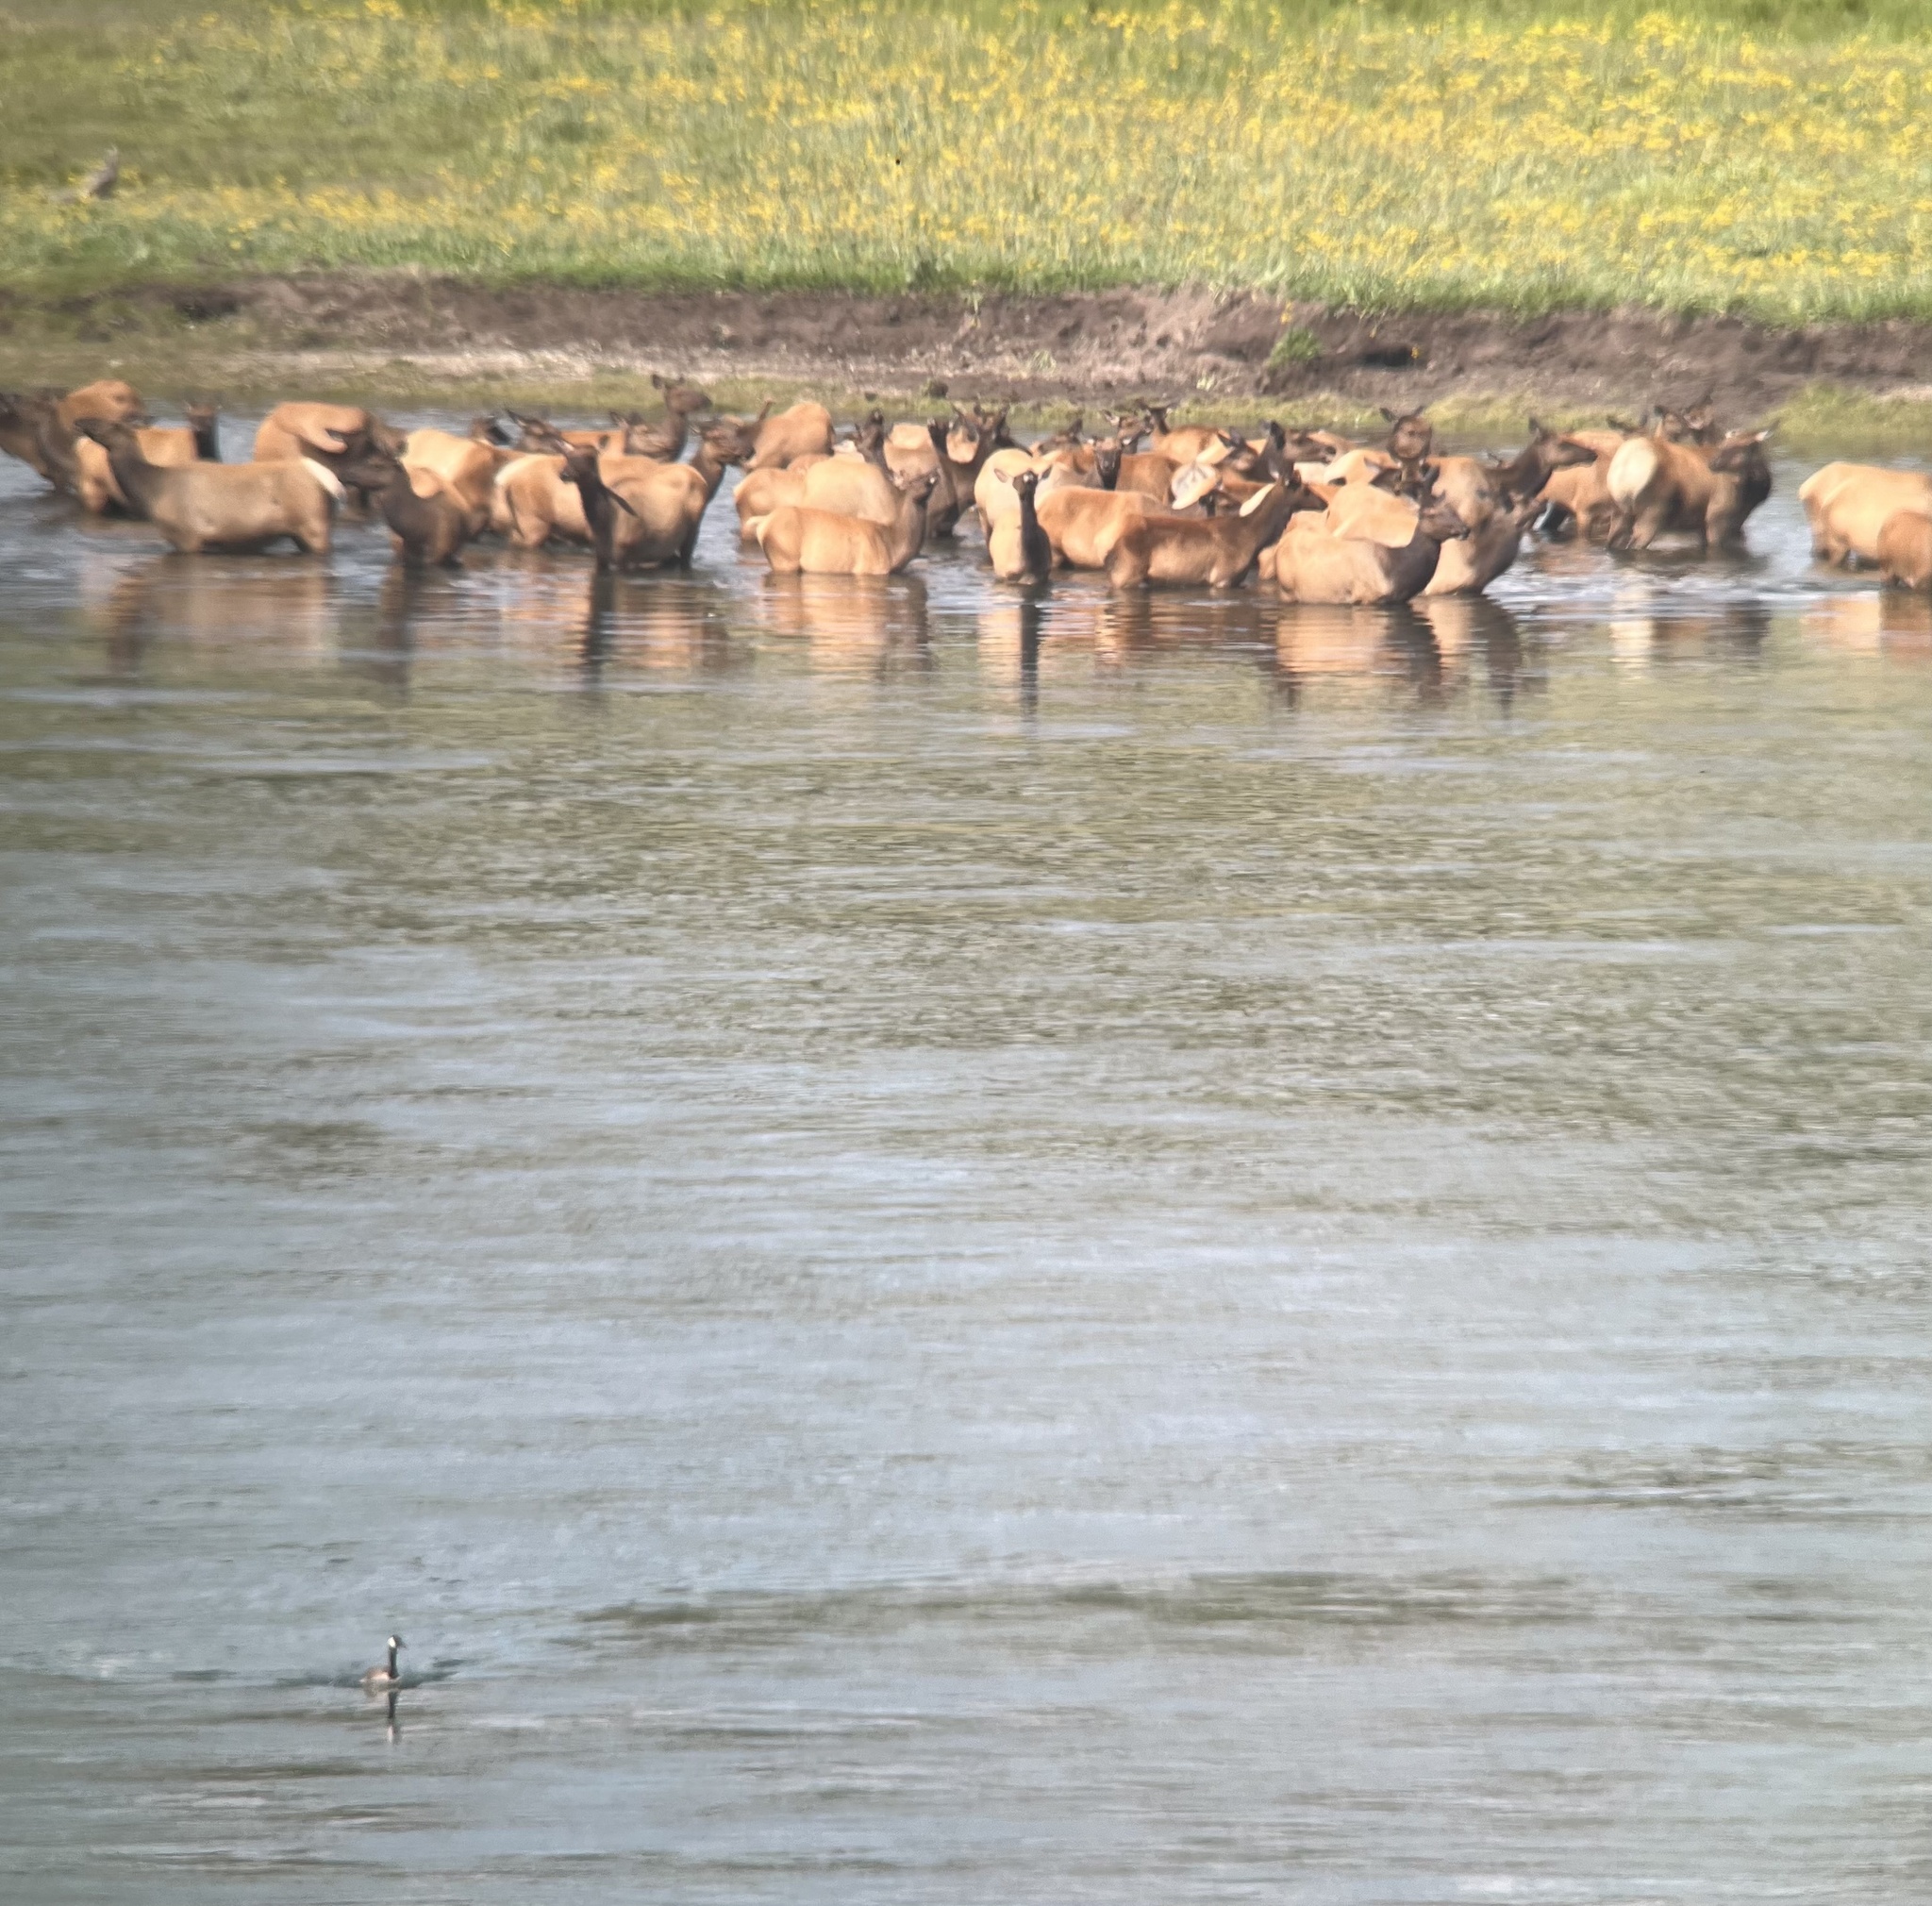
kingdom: Animalia
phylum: Chordata
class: Mammalia
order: Artiodactyla
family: Cervidae
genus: Cervus
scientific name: Cervus elaphus
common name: Red deer
